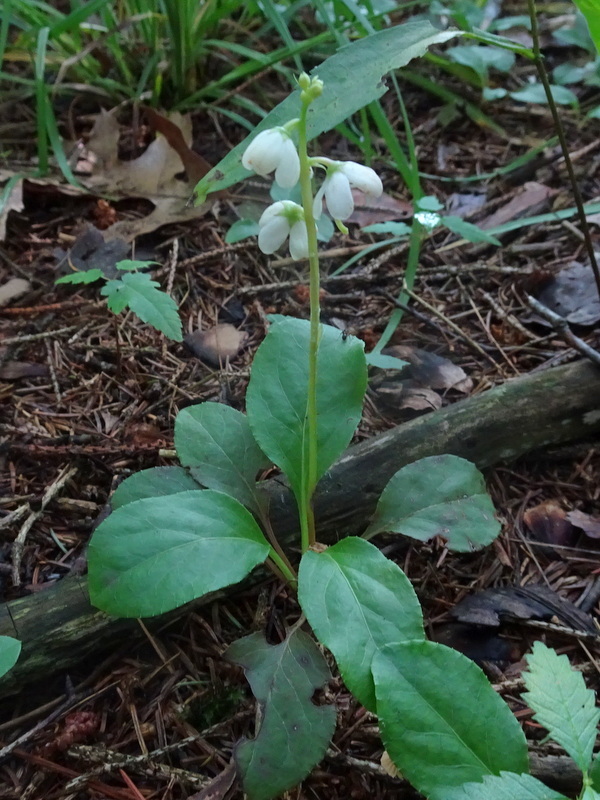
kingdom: Plantae
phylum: Tracheophyta
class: Magnoliopsida
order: Ericales
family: Ericaceae
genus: Pyrola
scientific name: Pyrola elliptica
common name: Shinleaf
